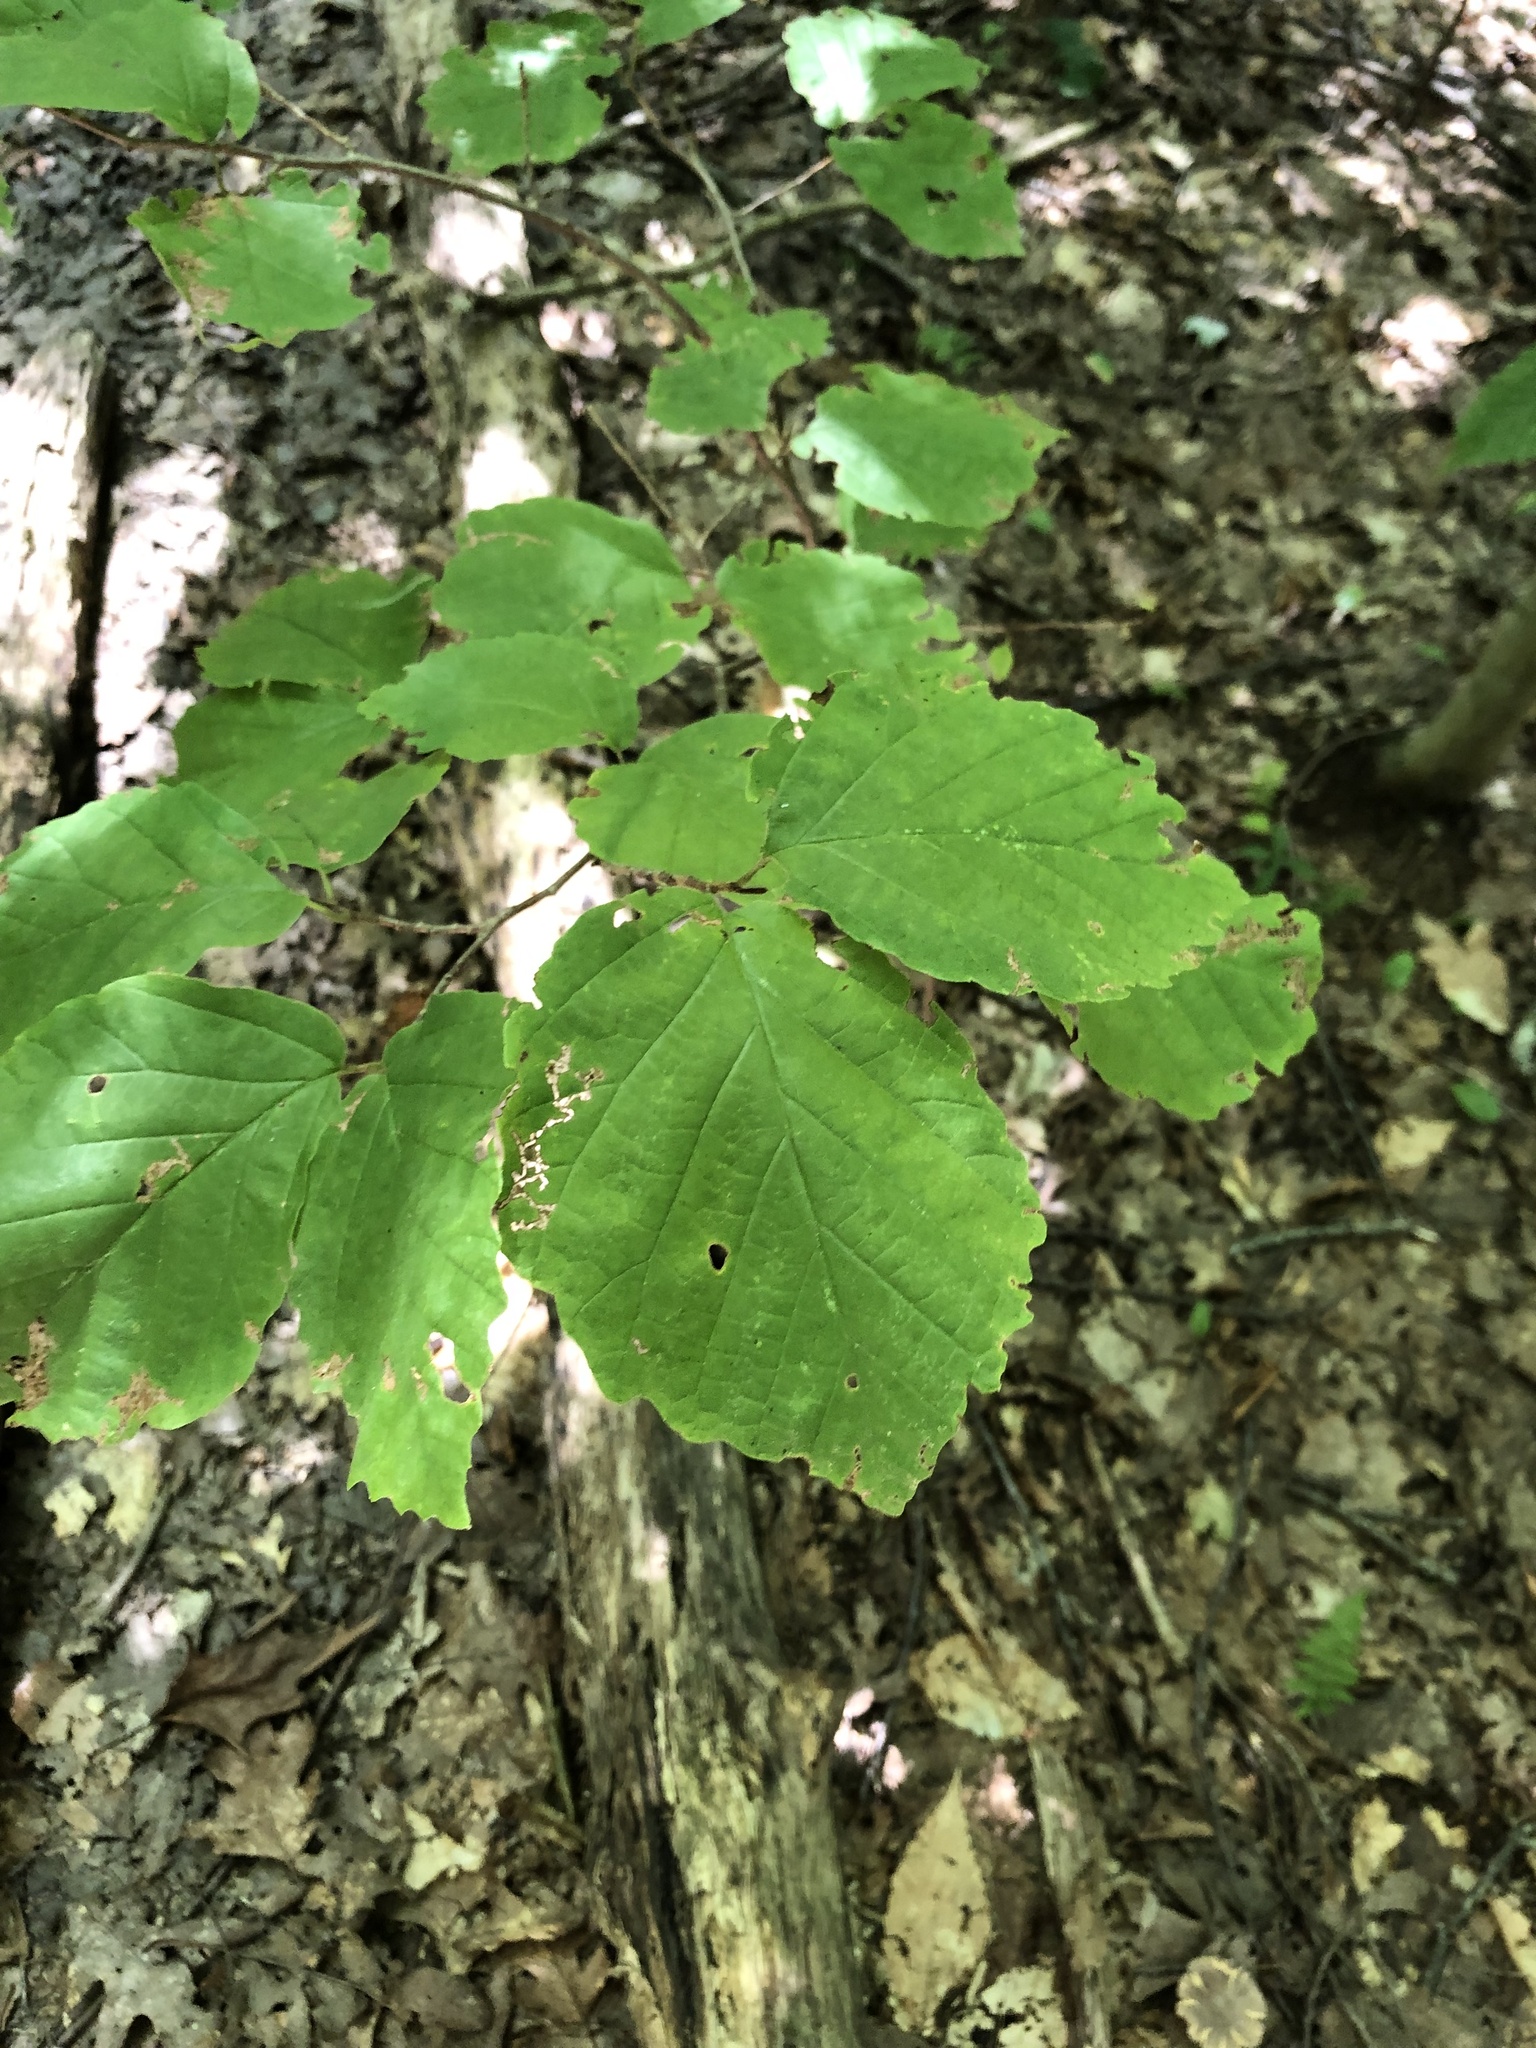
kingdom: Plantae
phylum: Tracheophyta
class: Magnoliopsida
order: Saxifragales
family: Hamamelidaceae
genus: Hamamelis
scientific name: Hamamelis virginiana
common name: Witch-hazel
